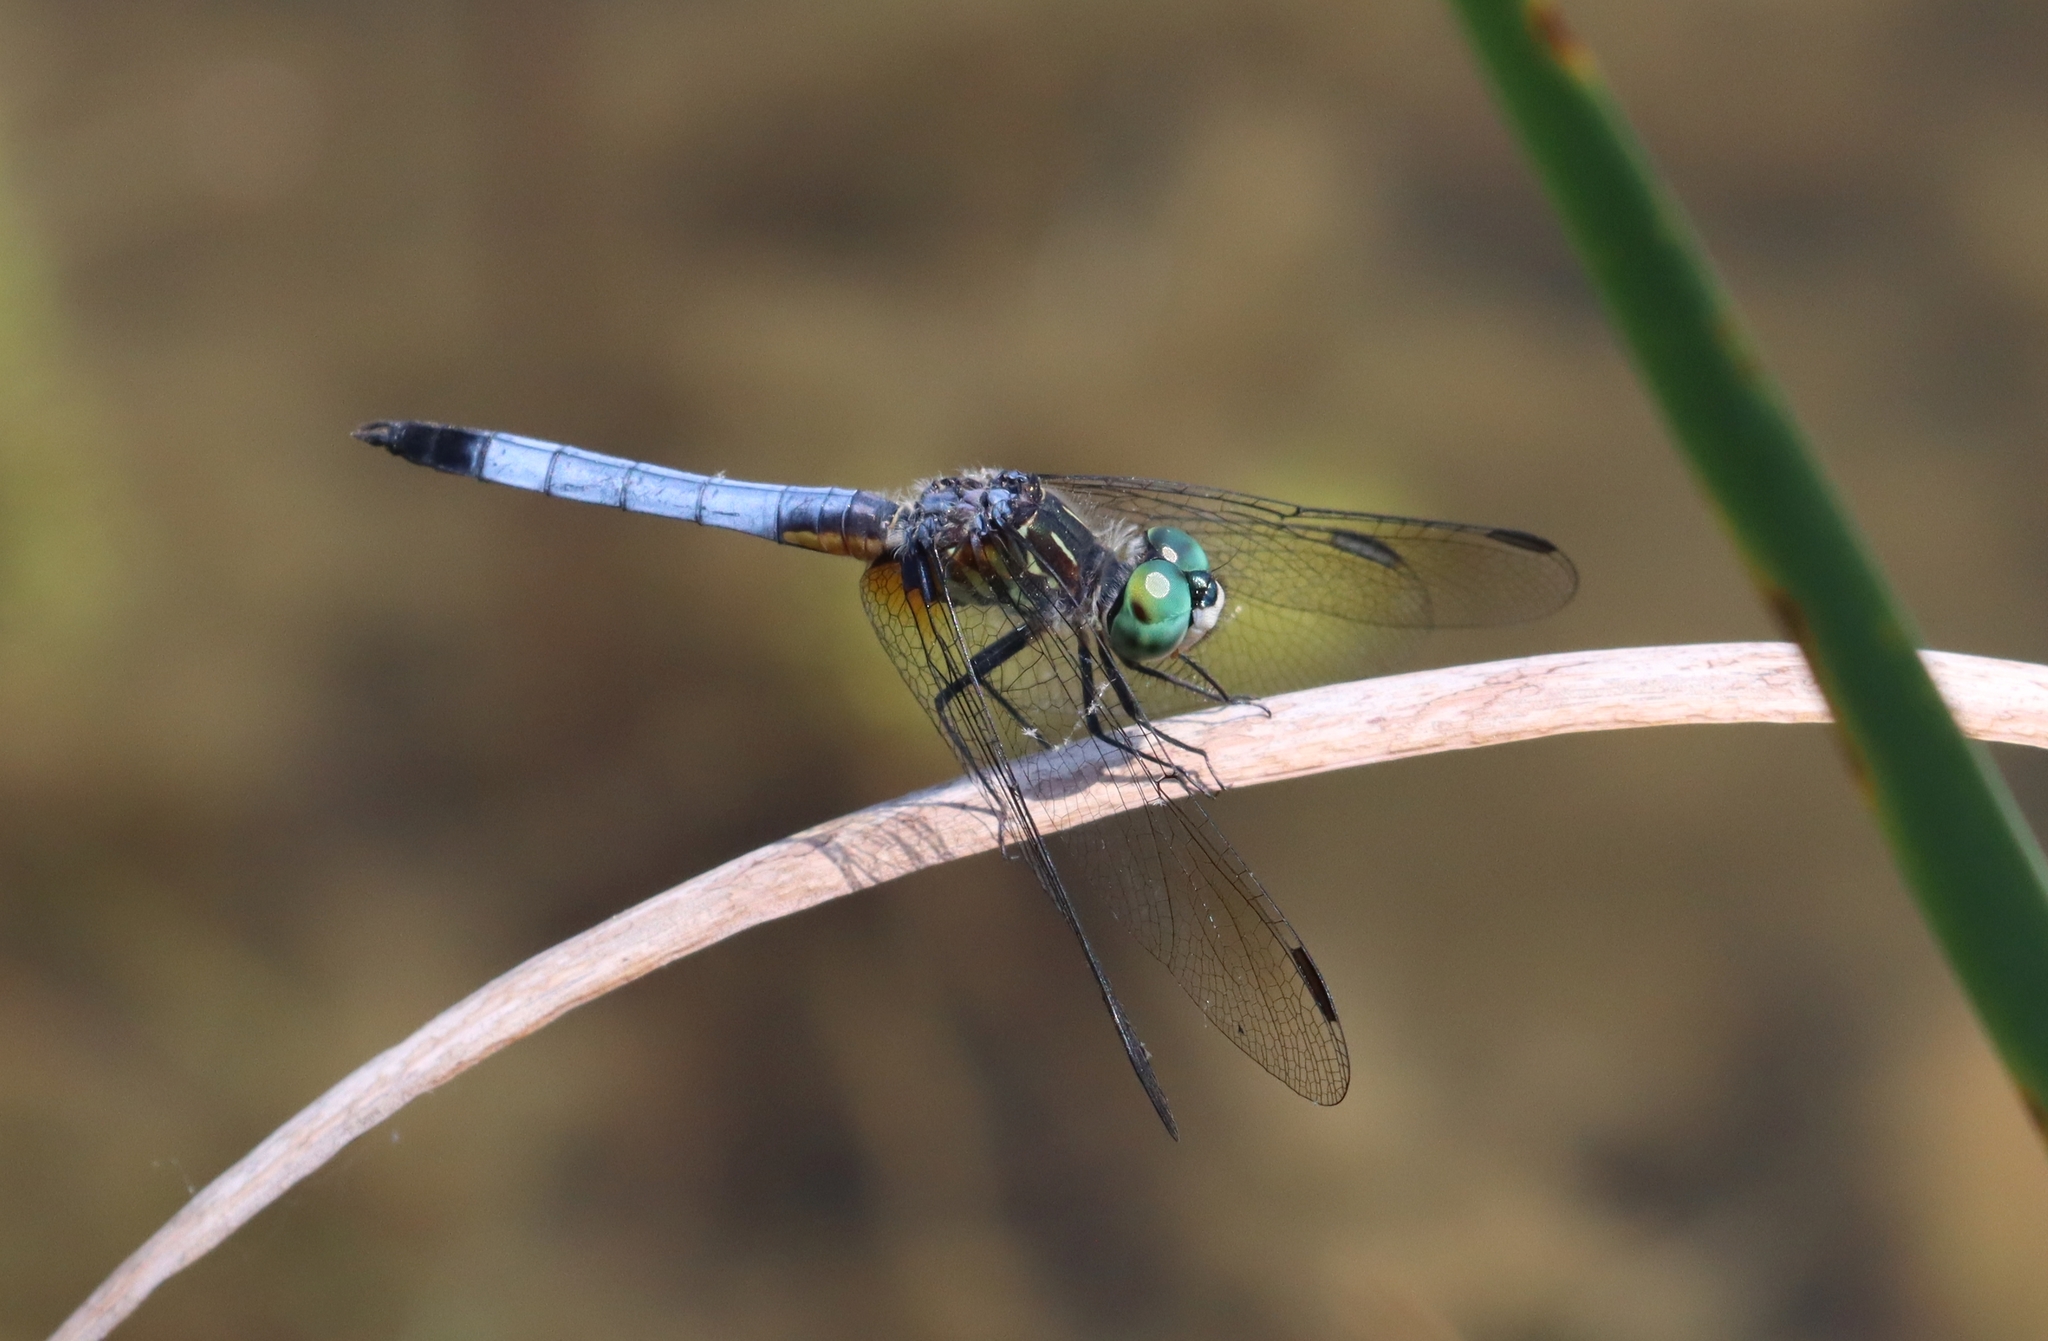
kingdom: Animalia
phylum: Arthropoda
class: Insecta
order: Odonata
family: Libellulidae
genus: Pachydiplax
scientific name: Pachydiplax longipennis
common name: Blue dasher
